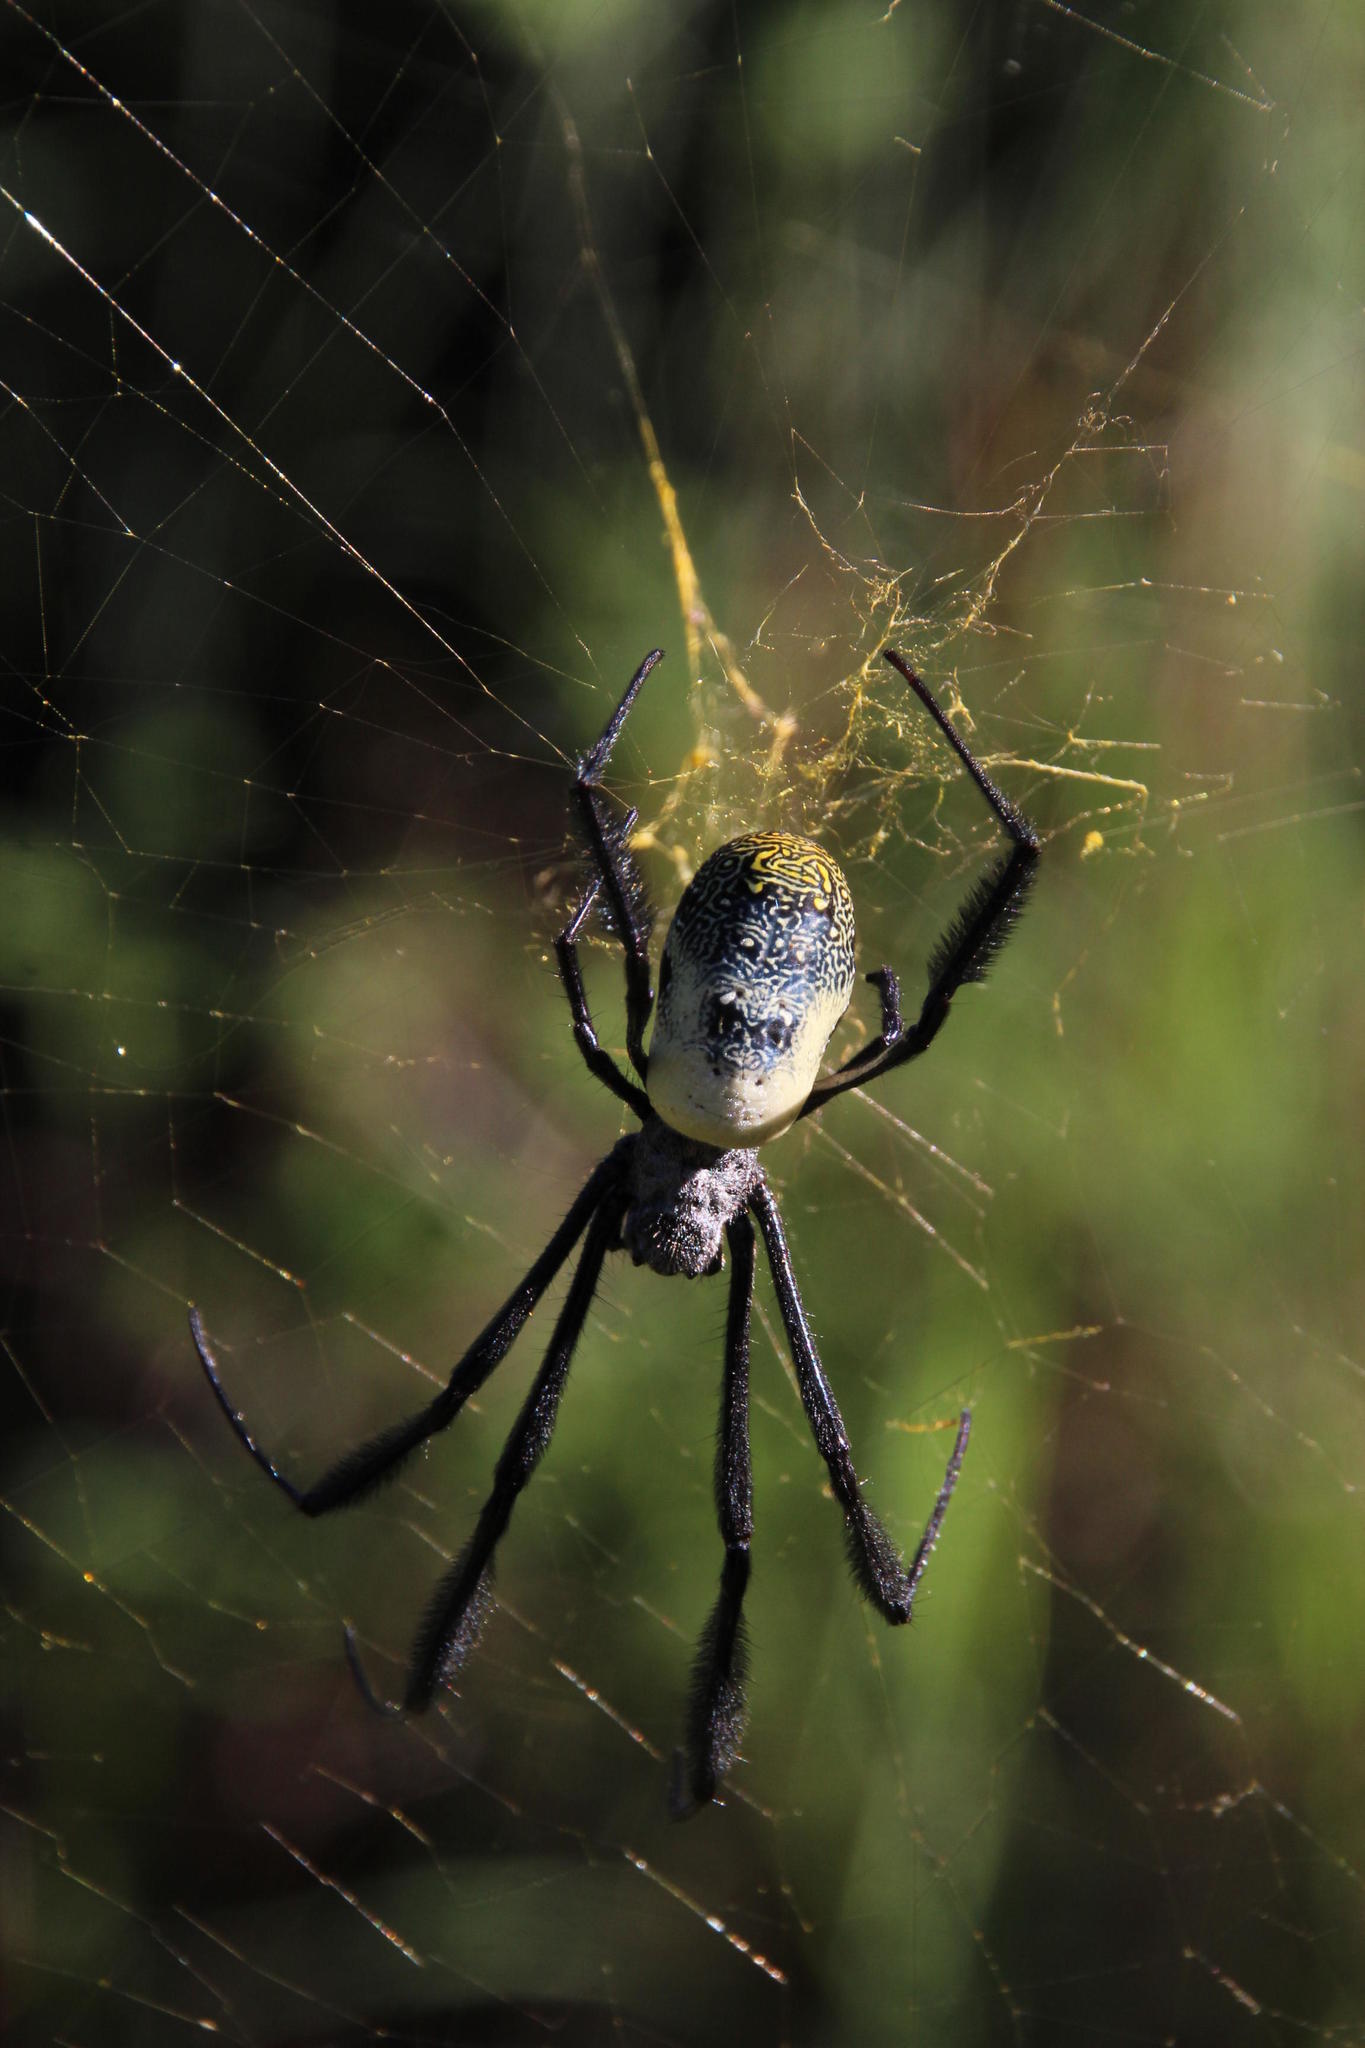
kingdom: Animalia
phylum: Arthropoda
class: Arachnida
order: Araneae
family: Araneidae
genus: Trichonephila
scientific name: Trichonephila fenestrata
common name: Hairy golden orb weaver
